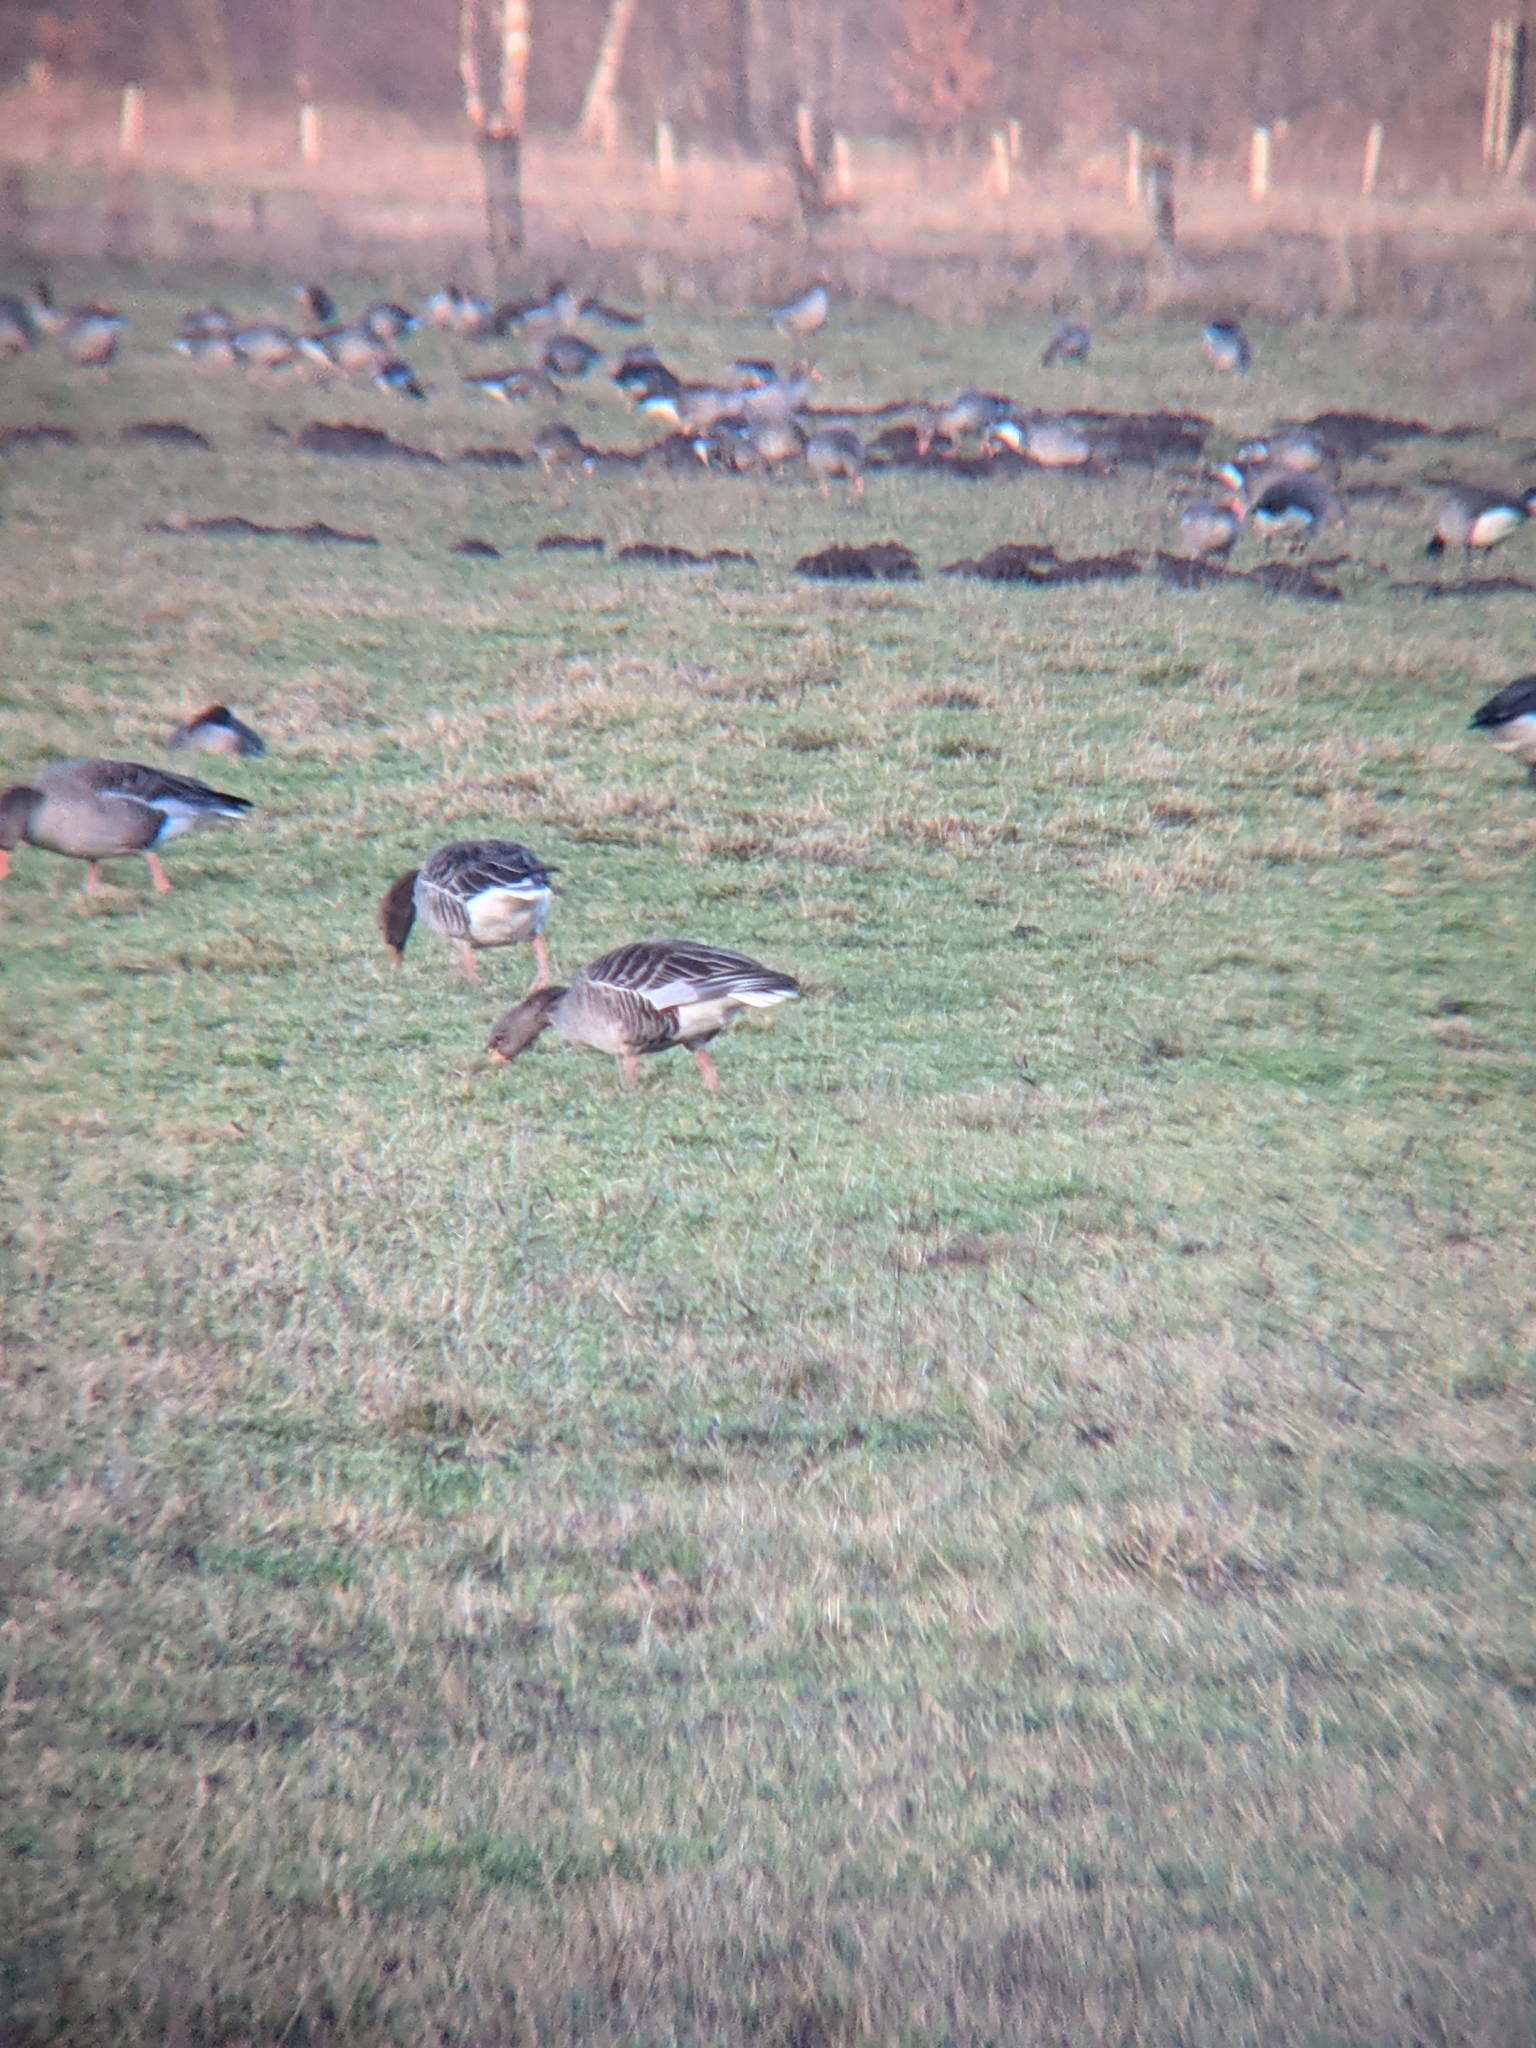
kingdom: Animalia
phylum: Chordata
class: Aves
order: Anseriformes
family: Anatidae
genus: Branta
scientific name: Branta canadensis
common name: Canada goose
